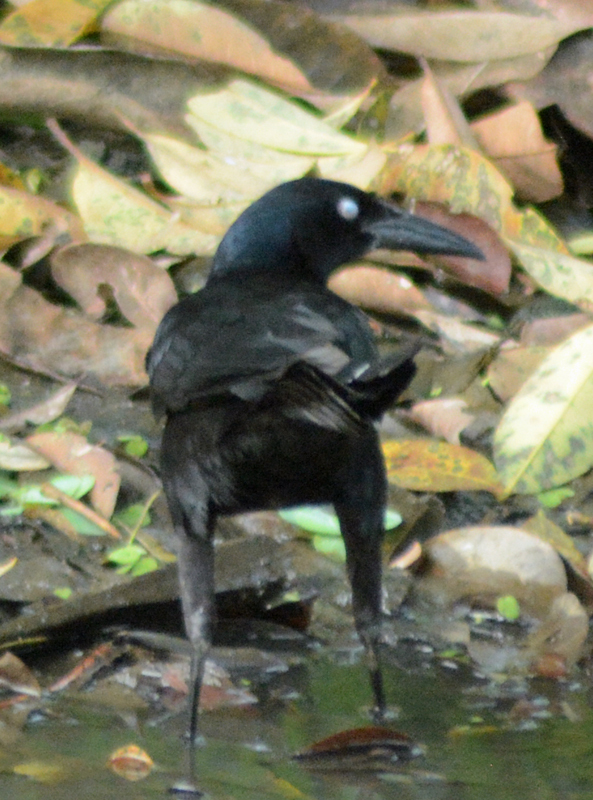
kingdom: Animalia
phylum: Chordata
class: Aves
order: Passeriformes
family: Icteridae
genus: Quiscalus
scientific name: Quiscalus mexicanus
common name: Great-tailed grackle
